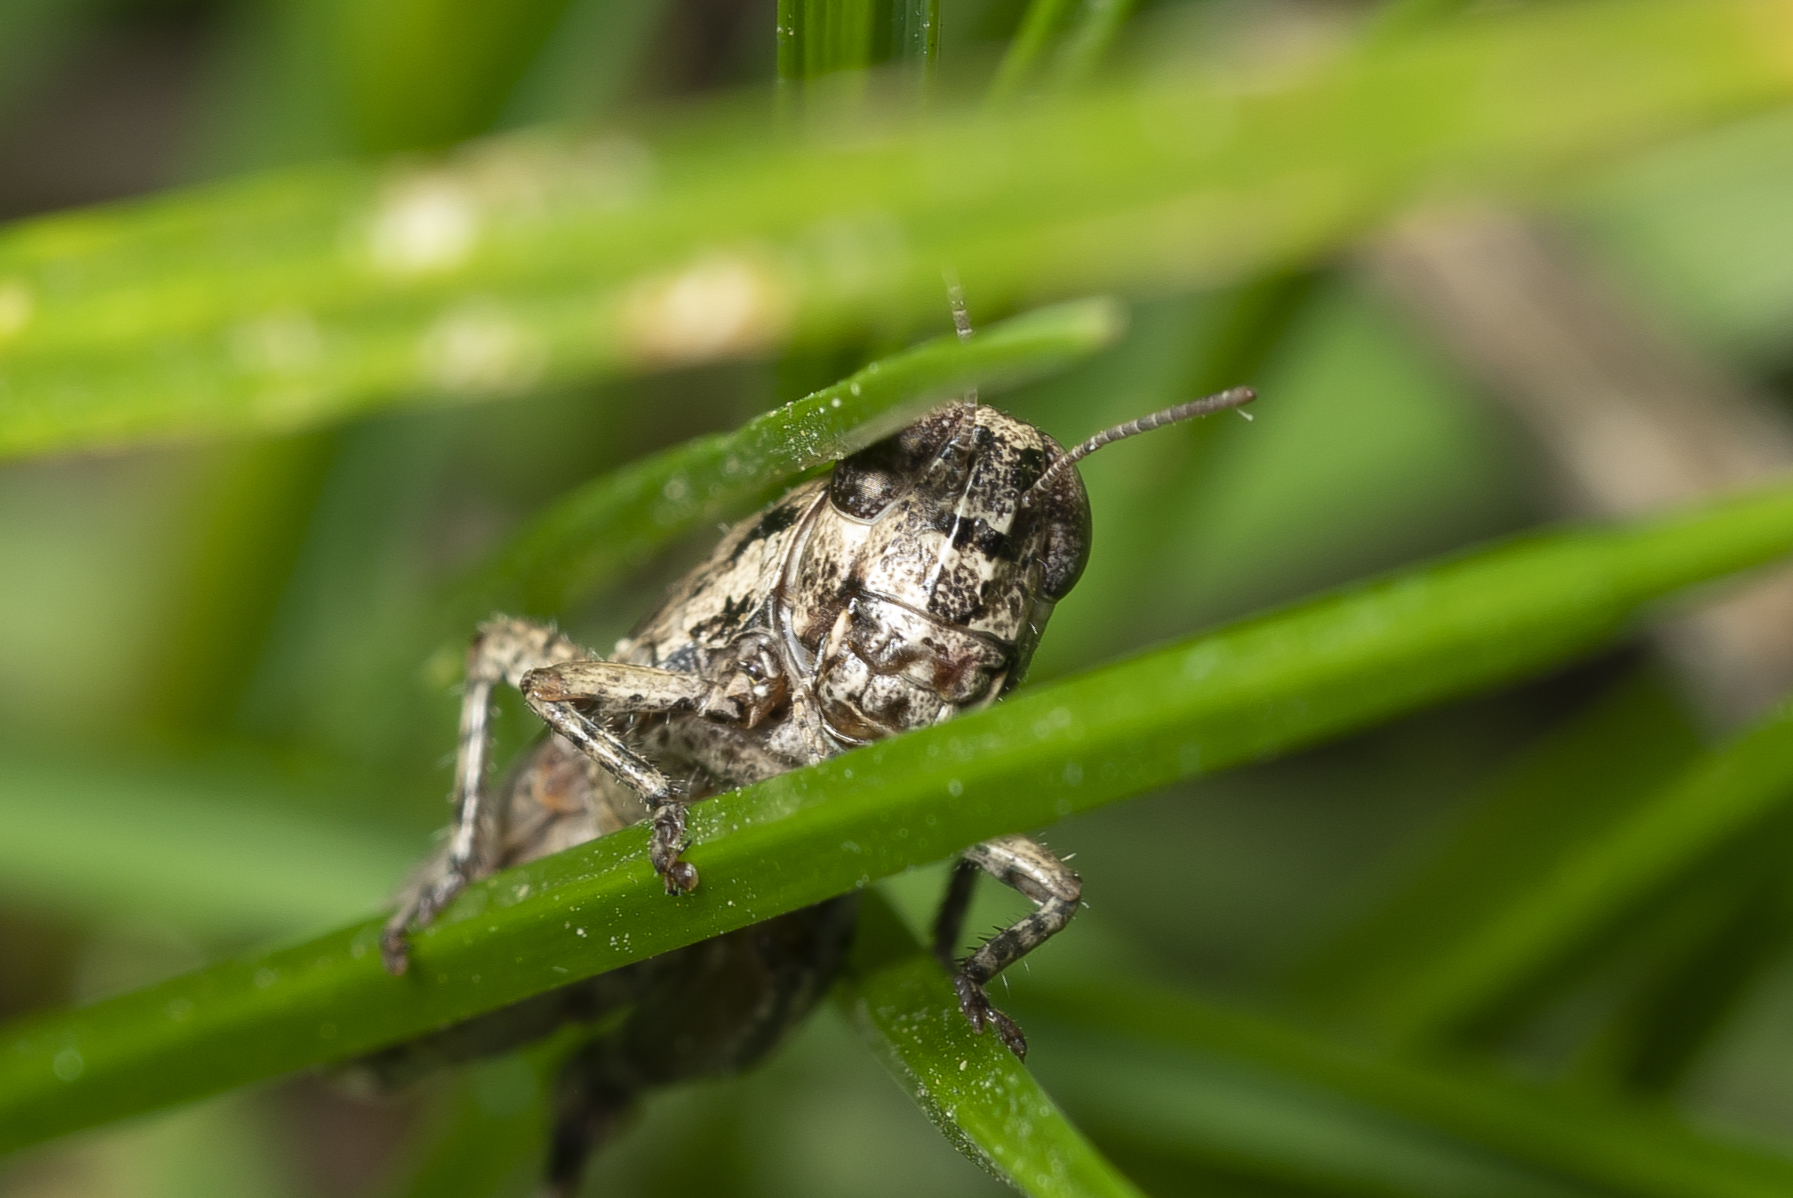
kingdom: Animalia
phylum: Arthropoda
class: Insecta
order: Orthoptera
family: Acrididae
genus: Pezotettix
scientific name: Pezotettix lagoi
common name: Rhodes maquis grasshopper
